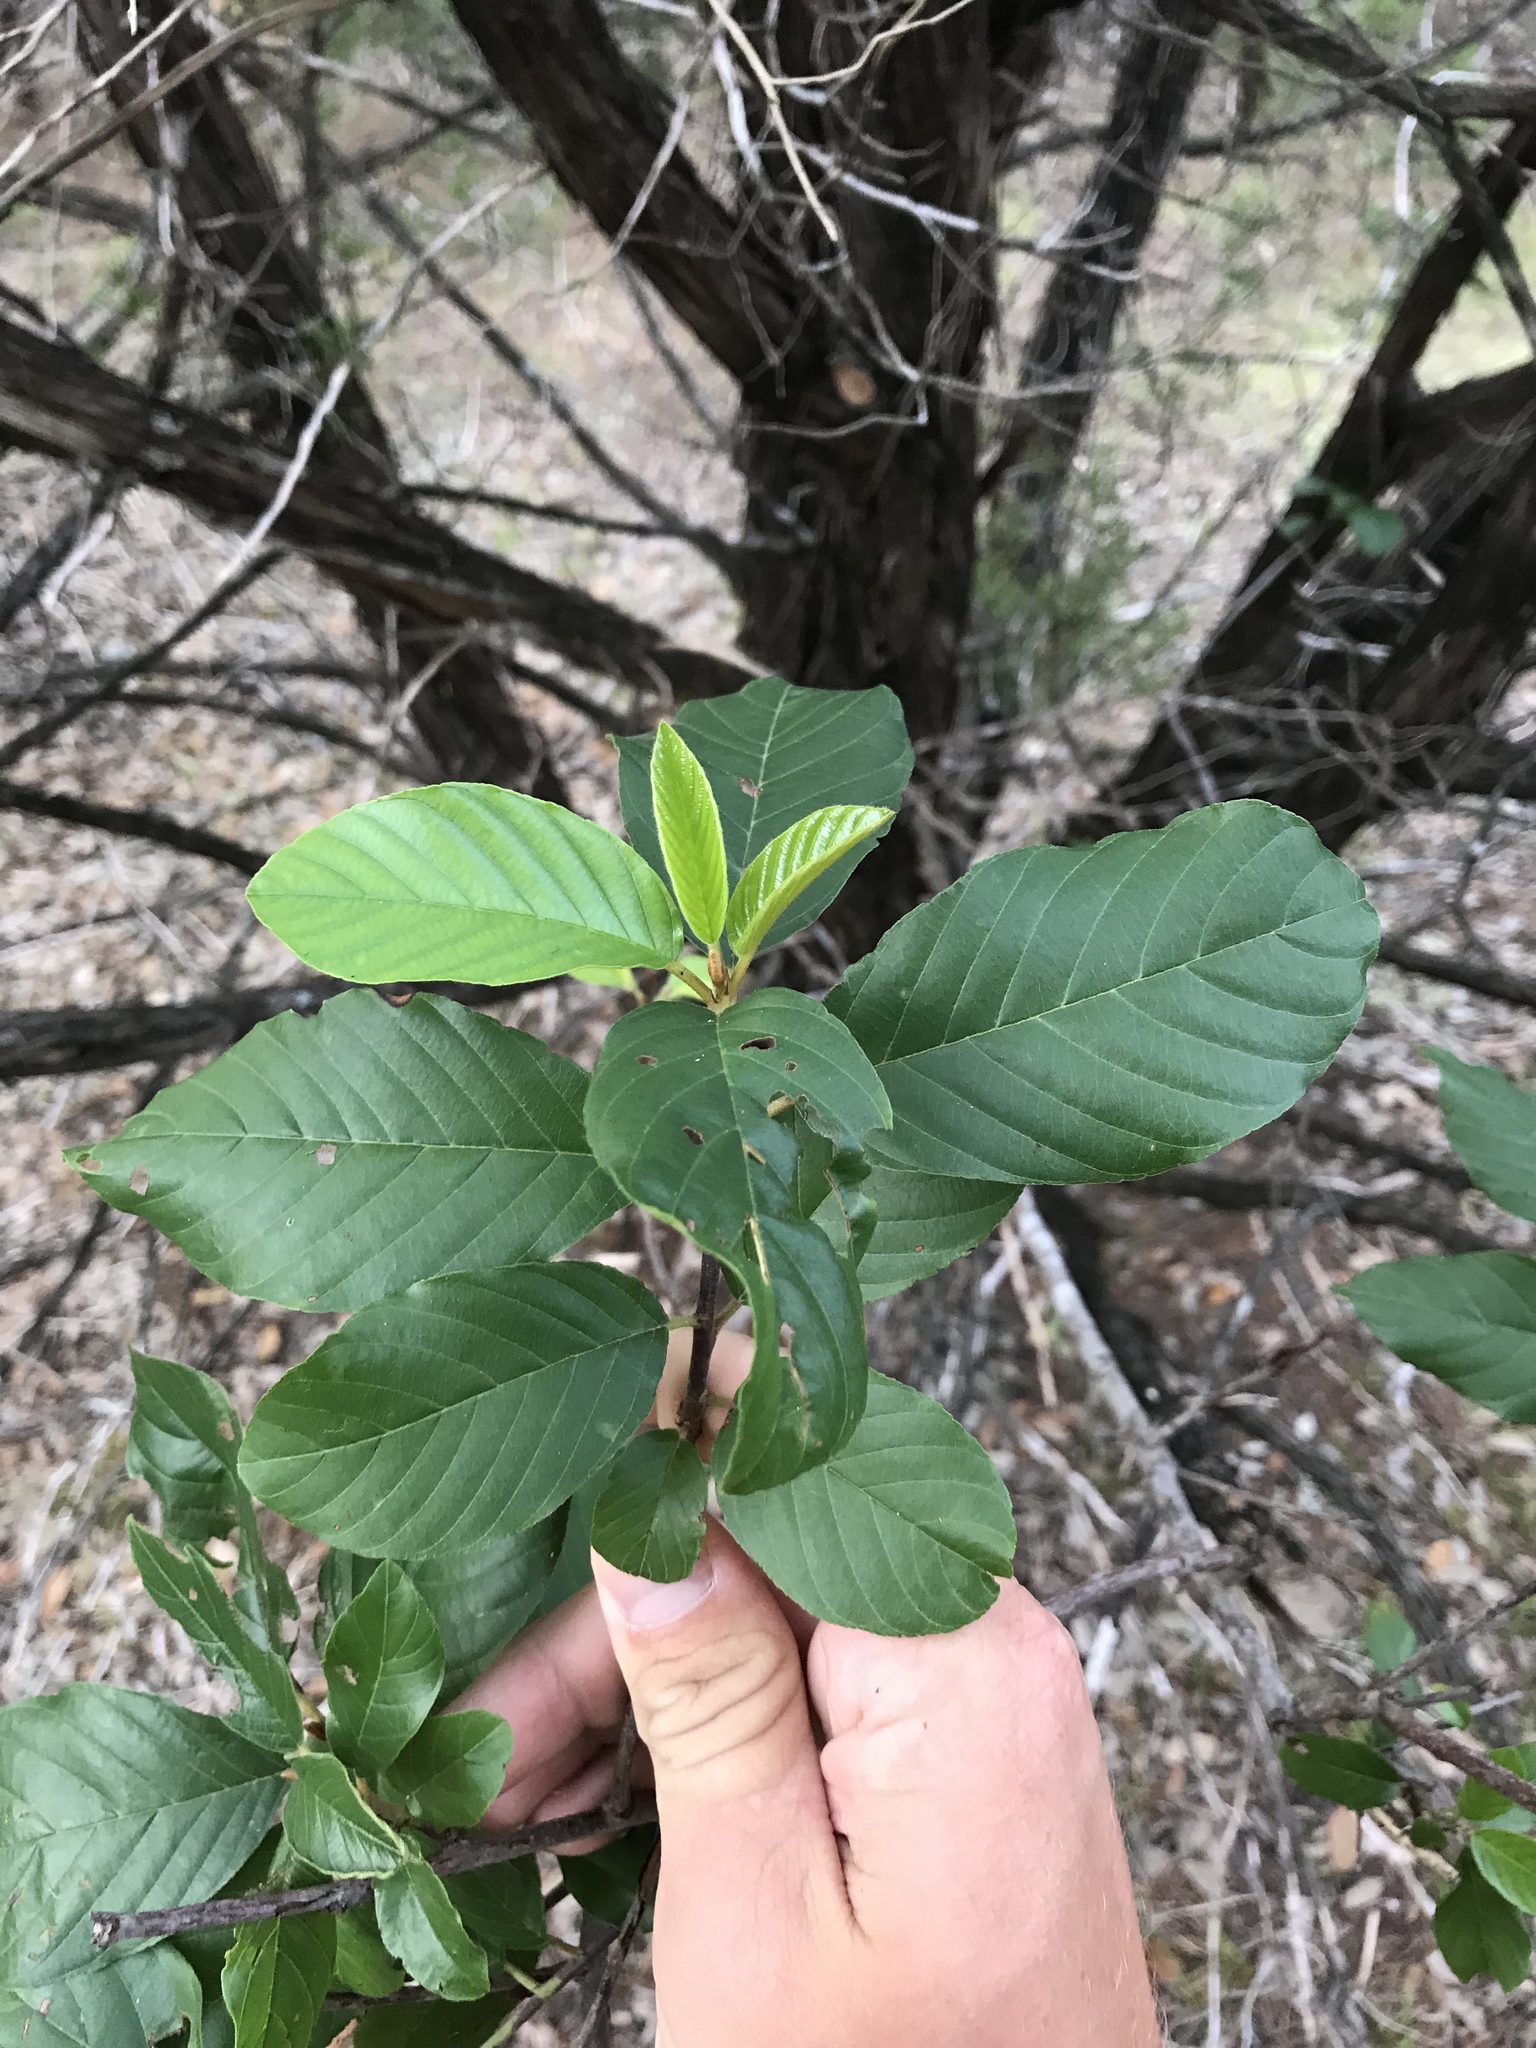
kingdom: Plantae
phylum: Tracheophyta
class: Magnoliopsida
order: Rosales
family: Rhamnaceae
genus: Frangula
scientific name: Frangula caroliniana
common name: Carolina buckthorn
